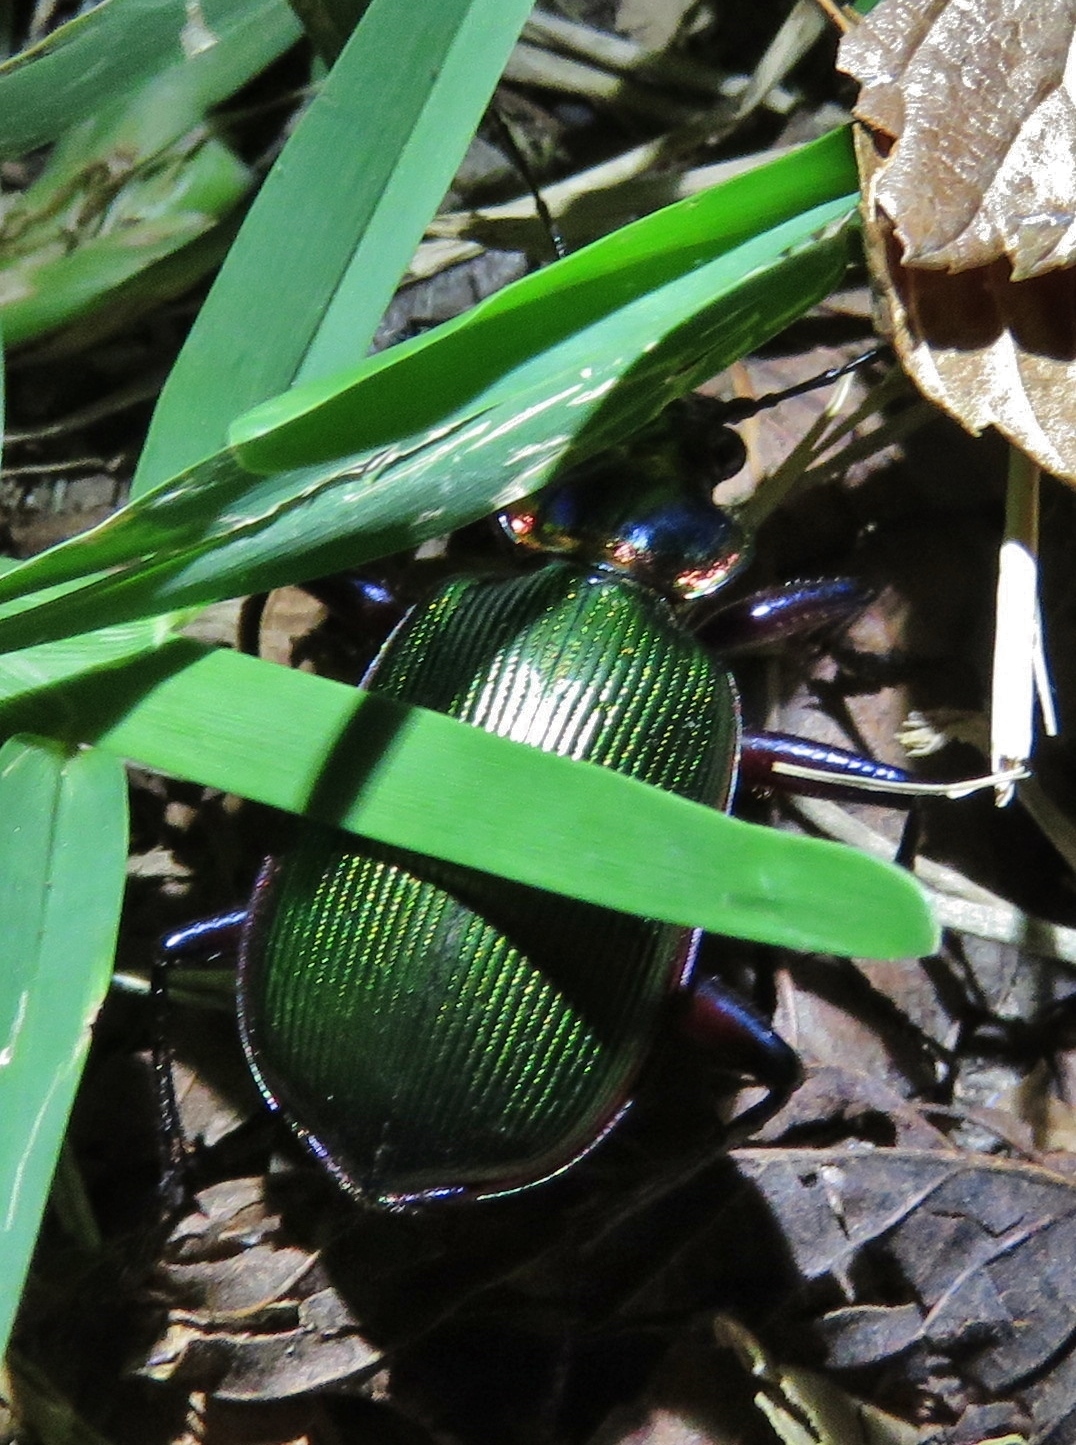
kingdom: Animalia
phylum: Arthropoda
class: Insecta
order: Coleoptera
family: Carabidae
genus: Calosoma
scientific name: Calosoma scrutator
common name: Fiery searcher beetle
